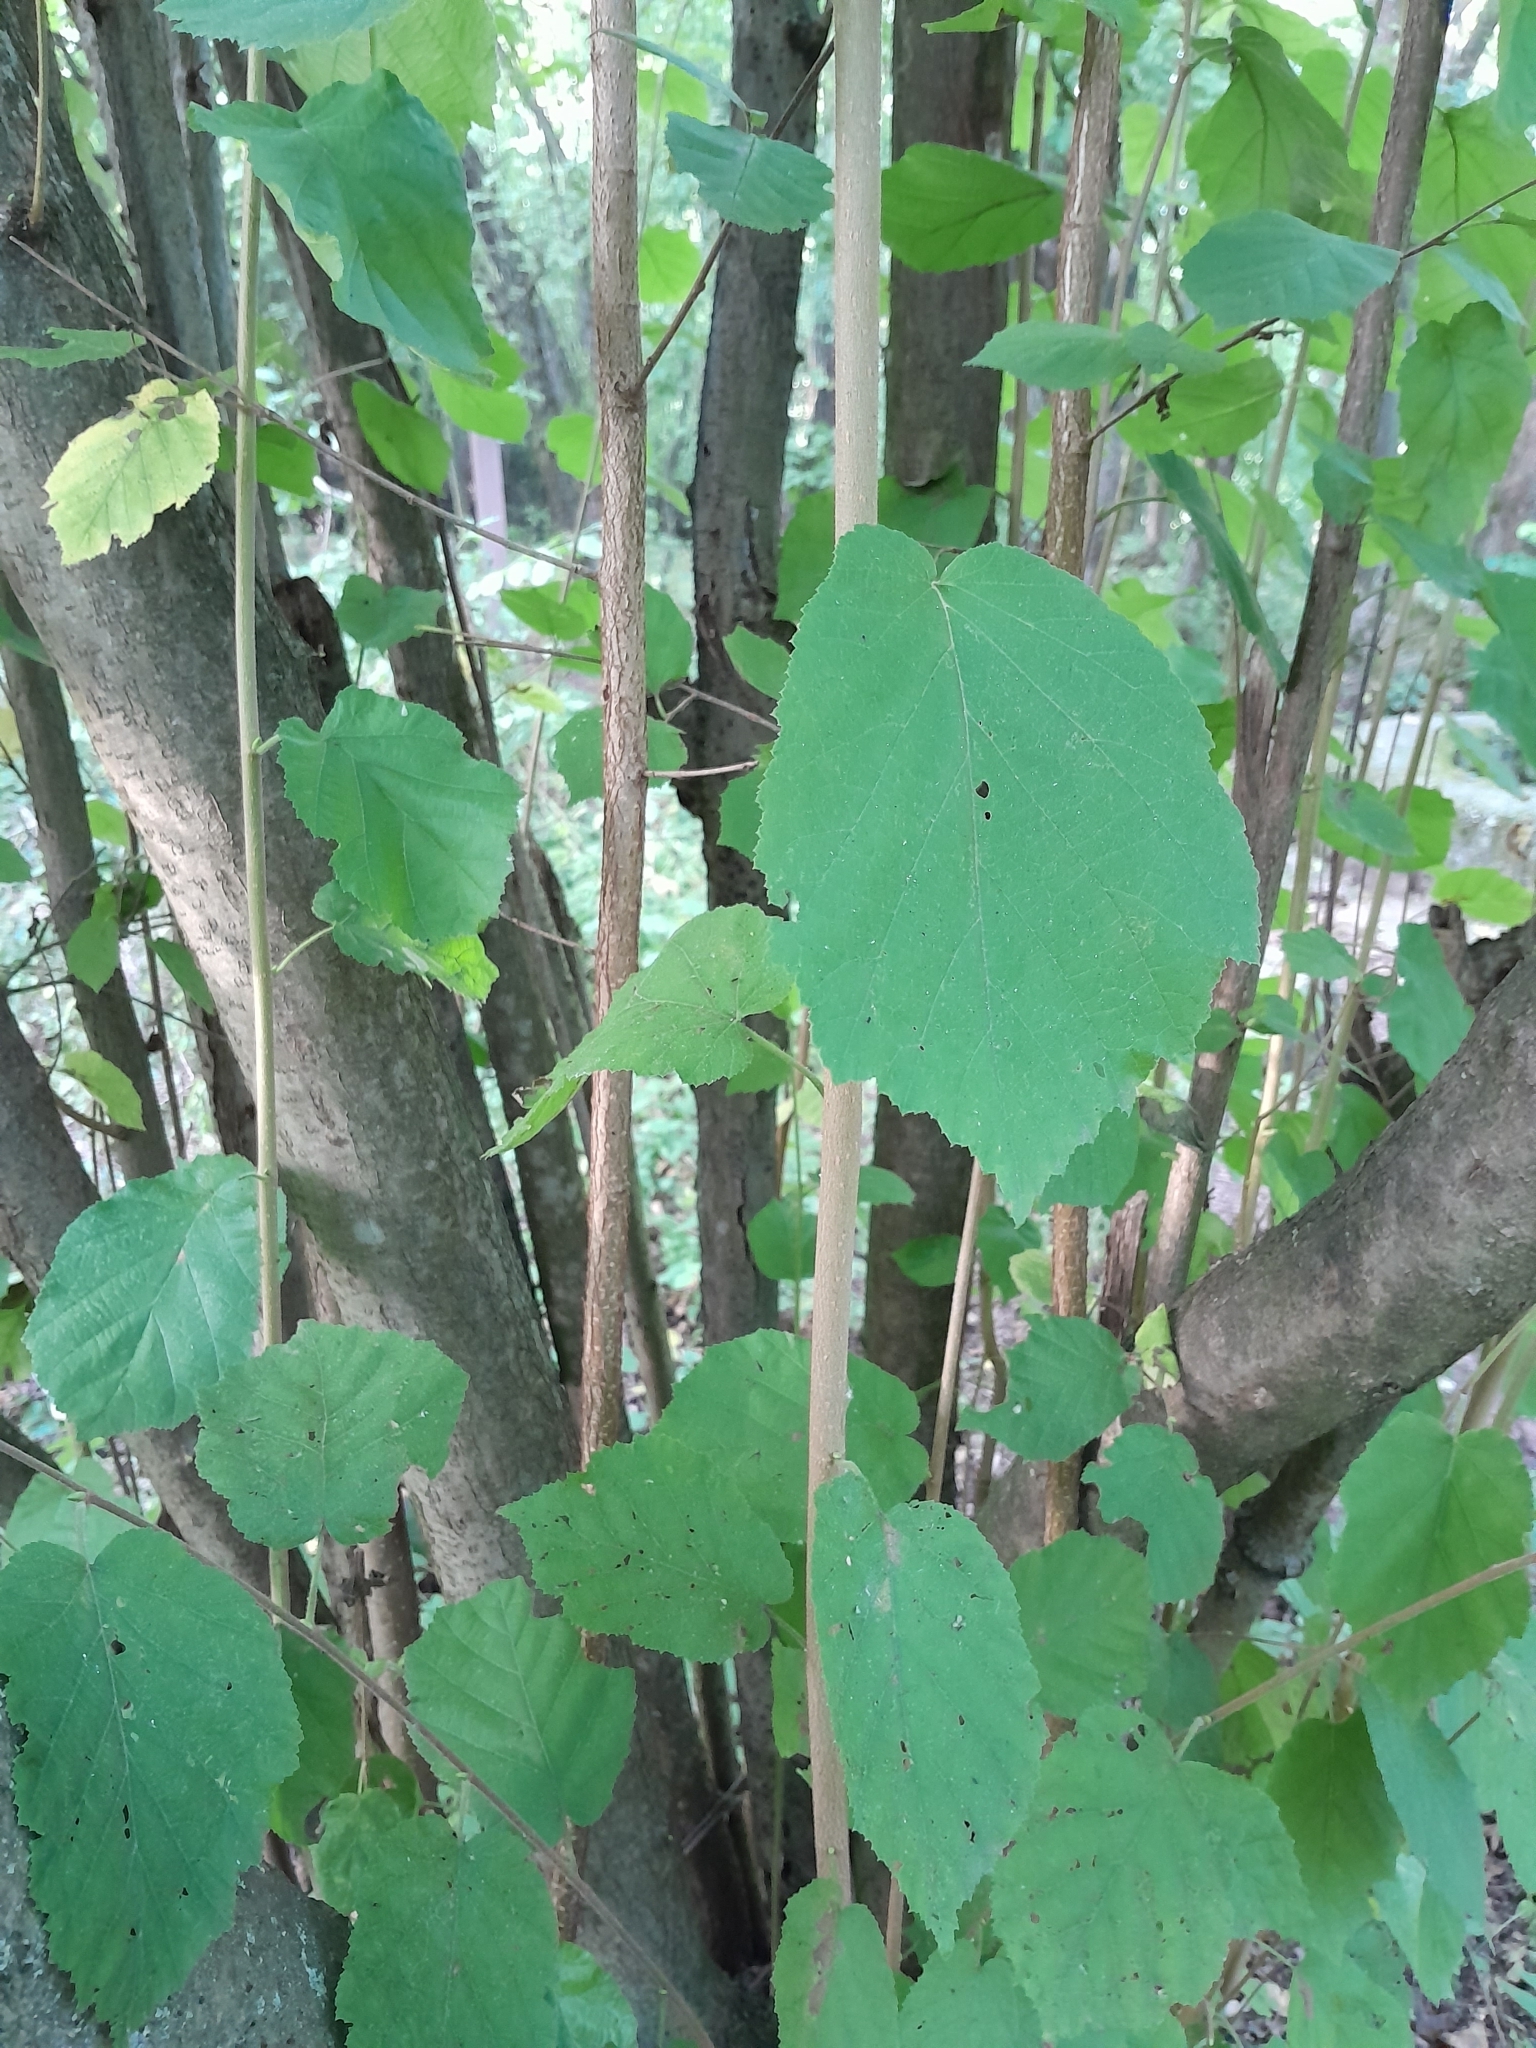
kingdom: Plantae
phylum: Tracheophyta
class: Magnoliopsida
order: Fagales
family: Betulaceae
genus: Corylus
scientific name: Corylus avellana
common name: European hazel
